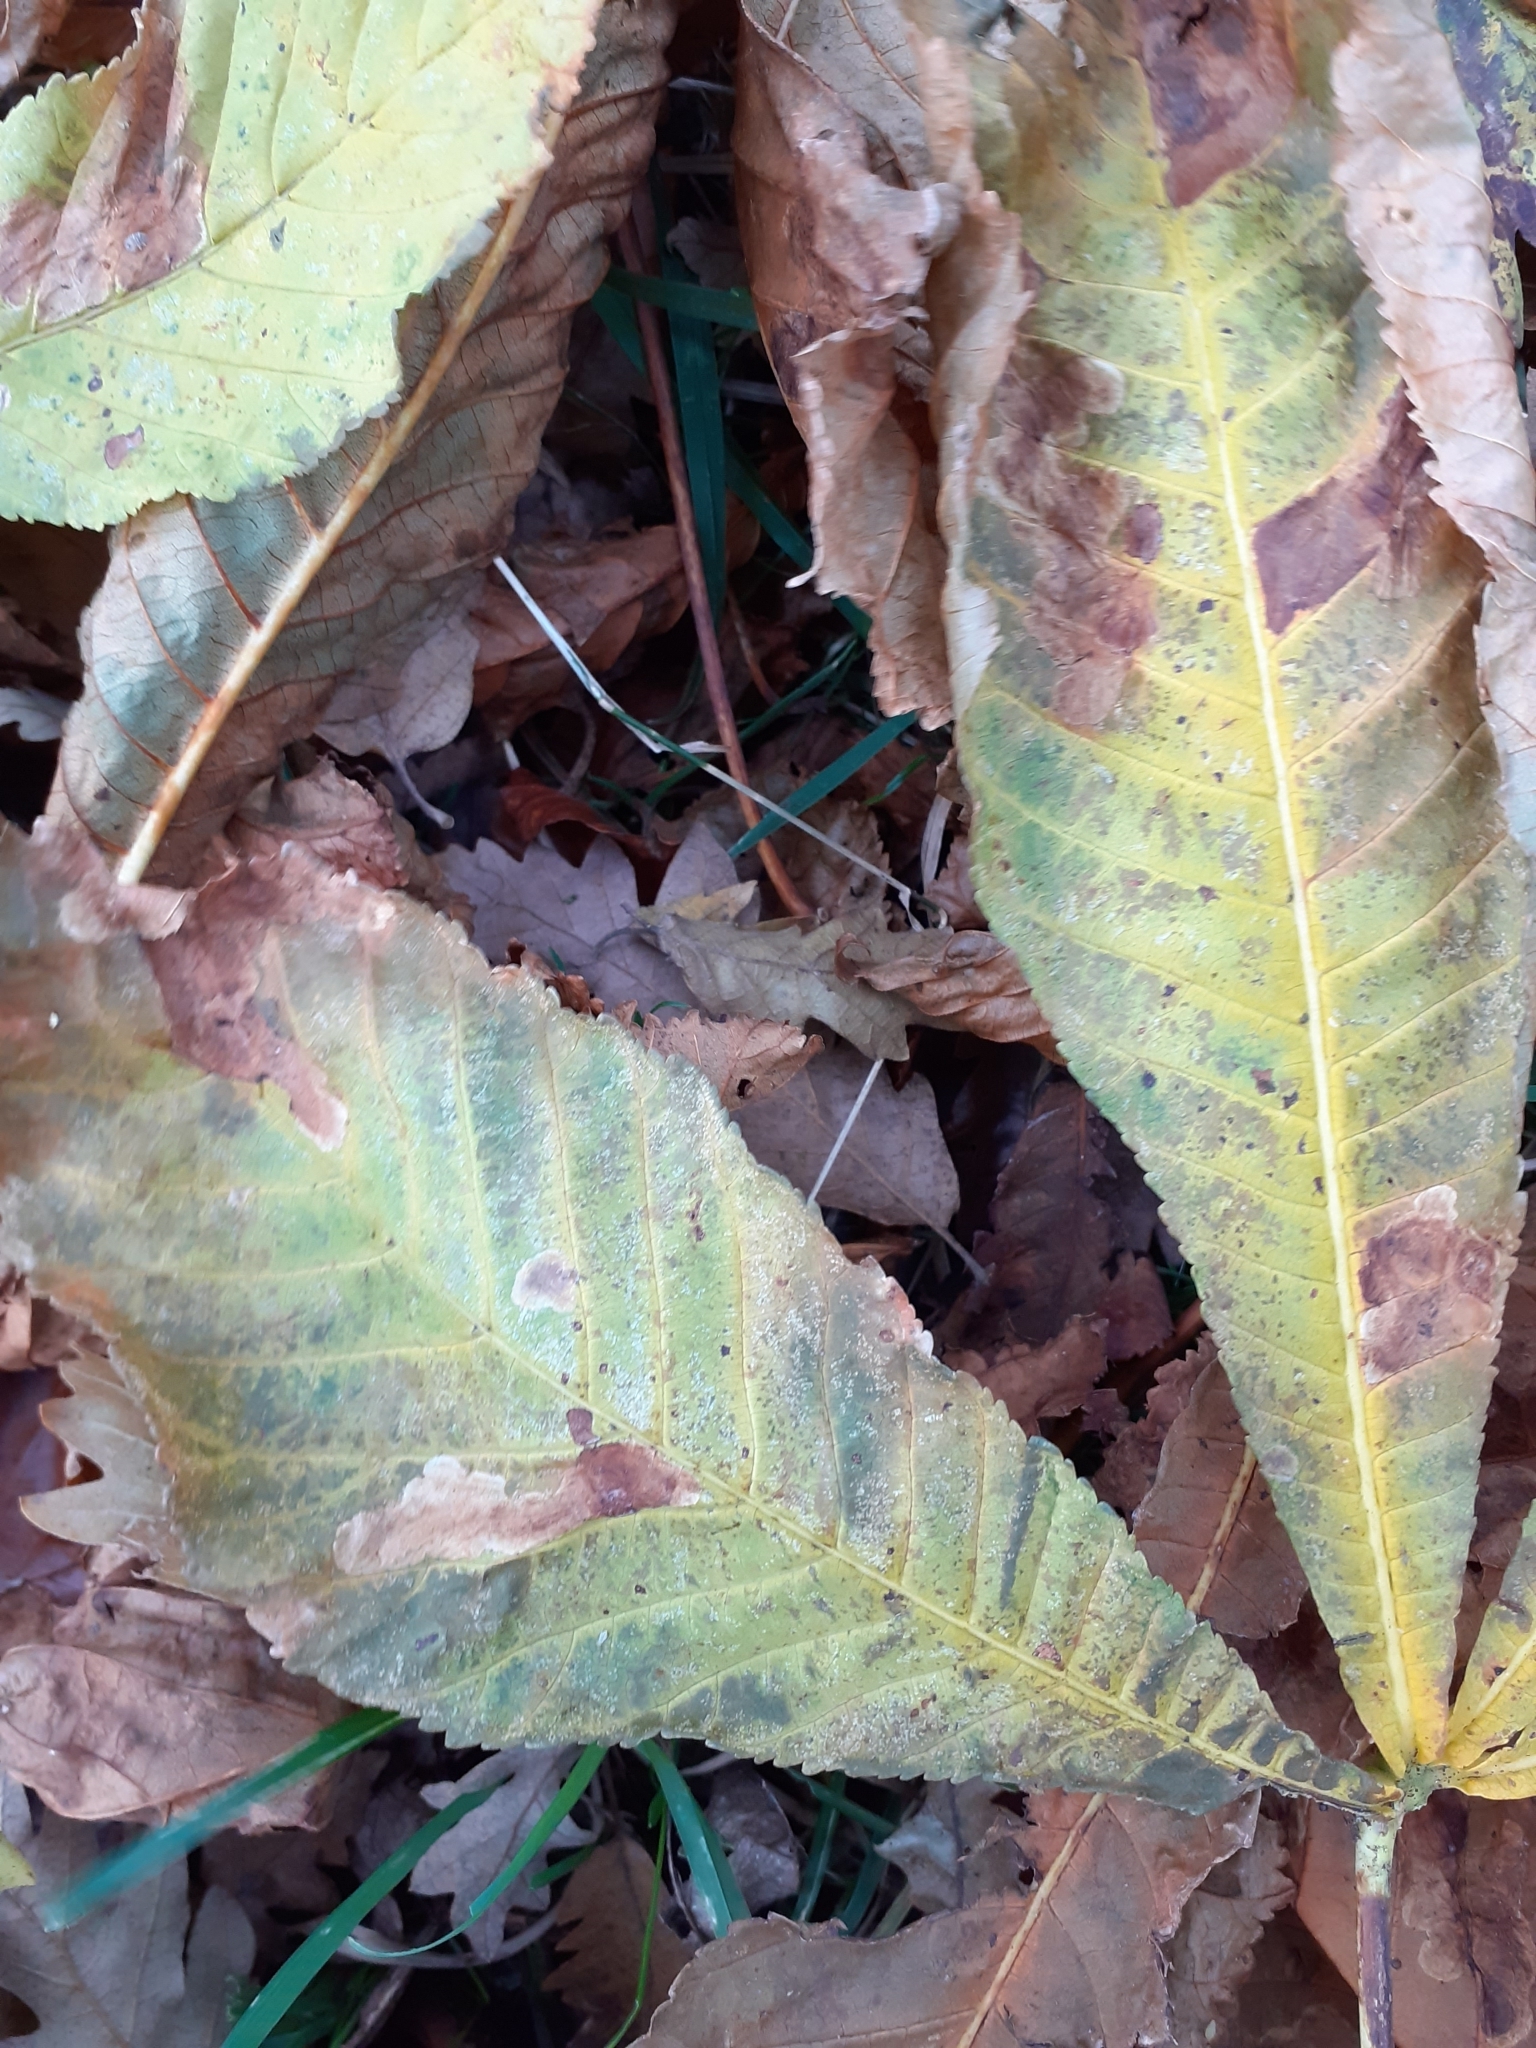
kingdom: Animalia
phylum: Arthropoda
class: Insecta
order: Lepidoptera
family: Gracillariidae
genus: Cameraria
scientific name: Cameraria ohridella
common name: Horse-chestnut leaf-miner
